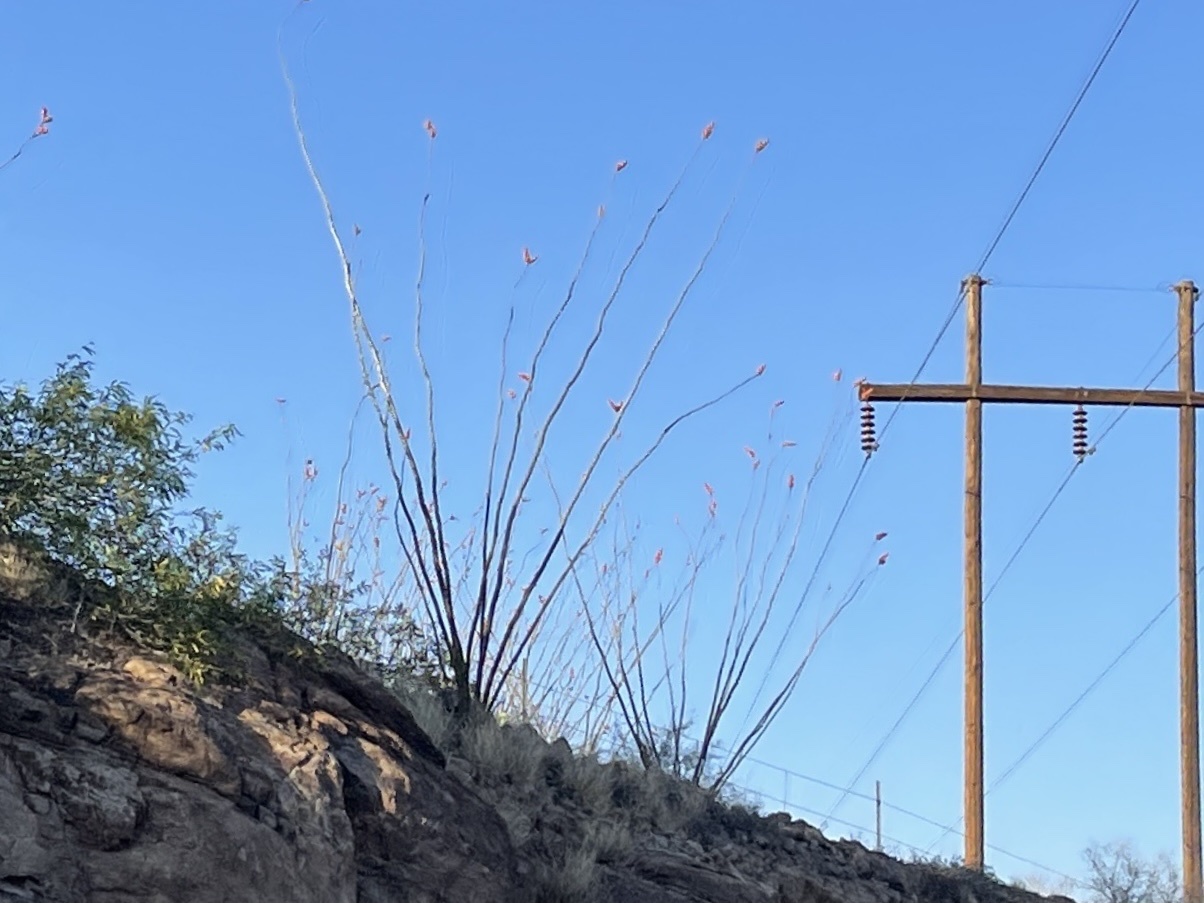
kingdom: Plantae
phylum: Tracheophyta
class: Magnoliopsida
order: Ericales
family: Fouquieriaceae
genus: Fouquieria
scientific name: Fouquieria splendens
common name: Vine-cactus
